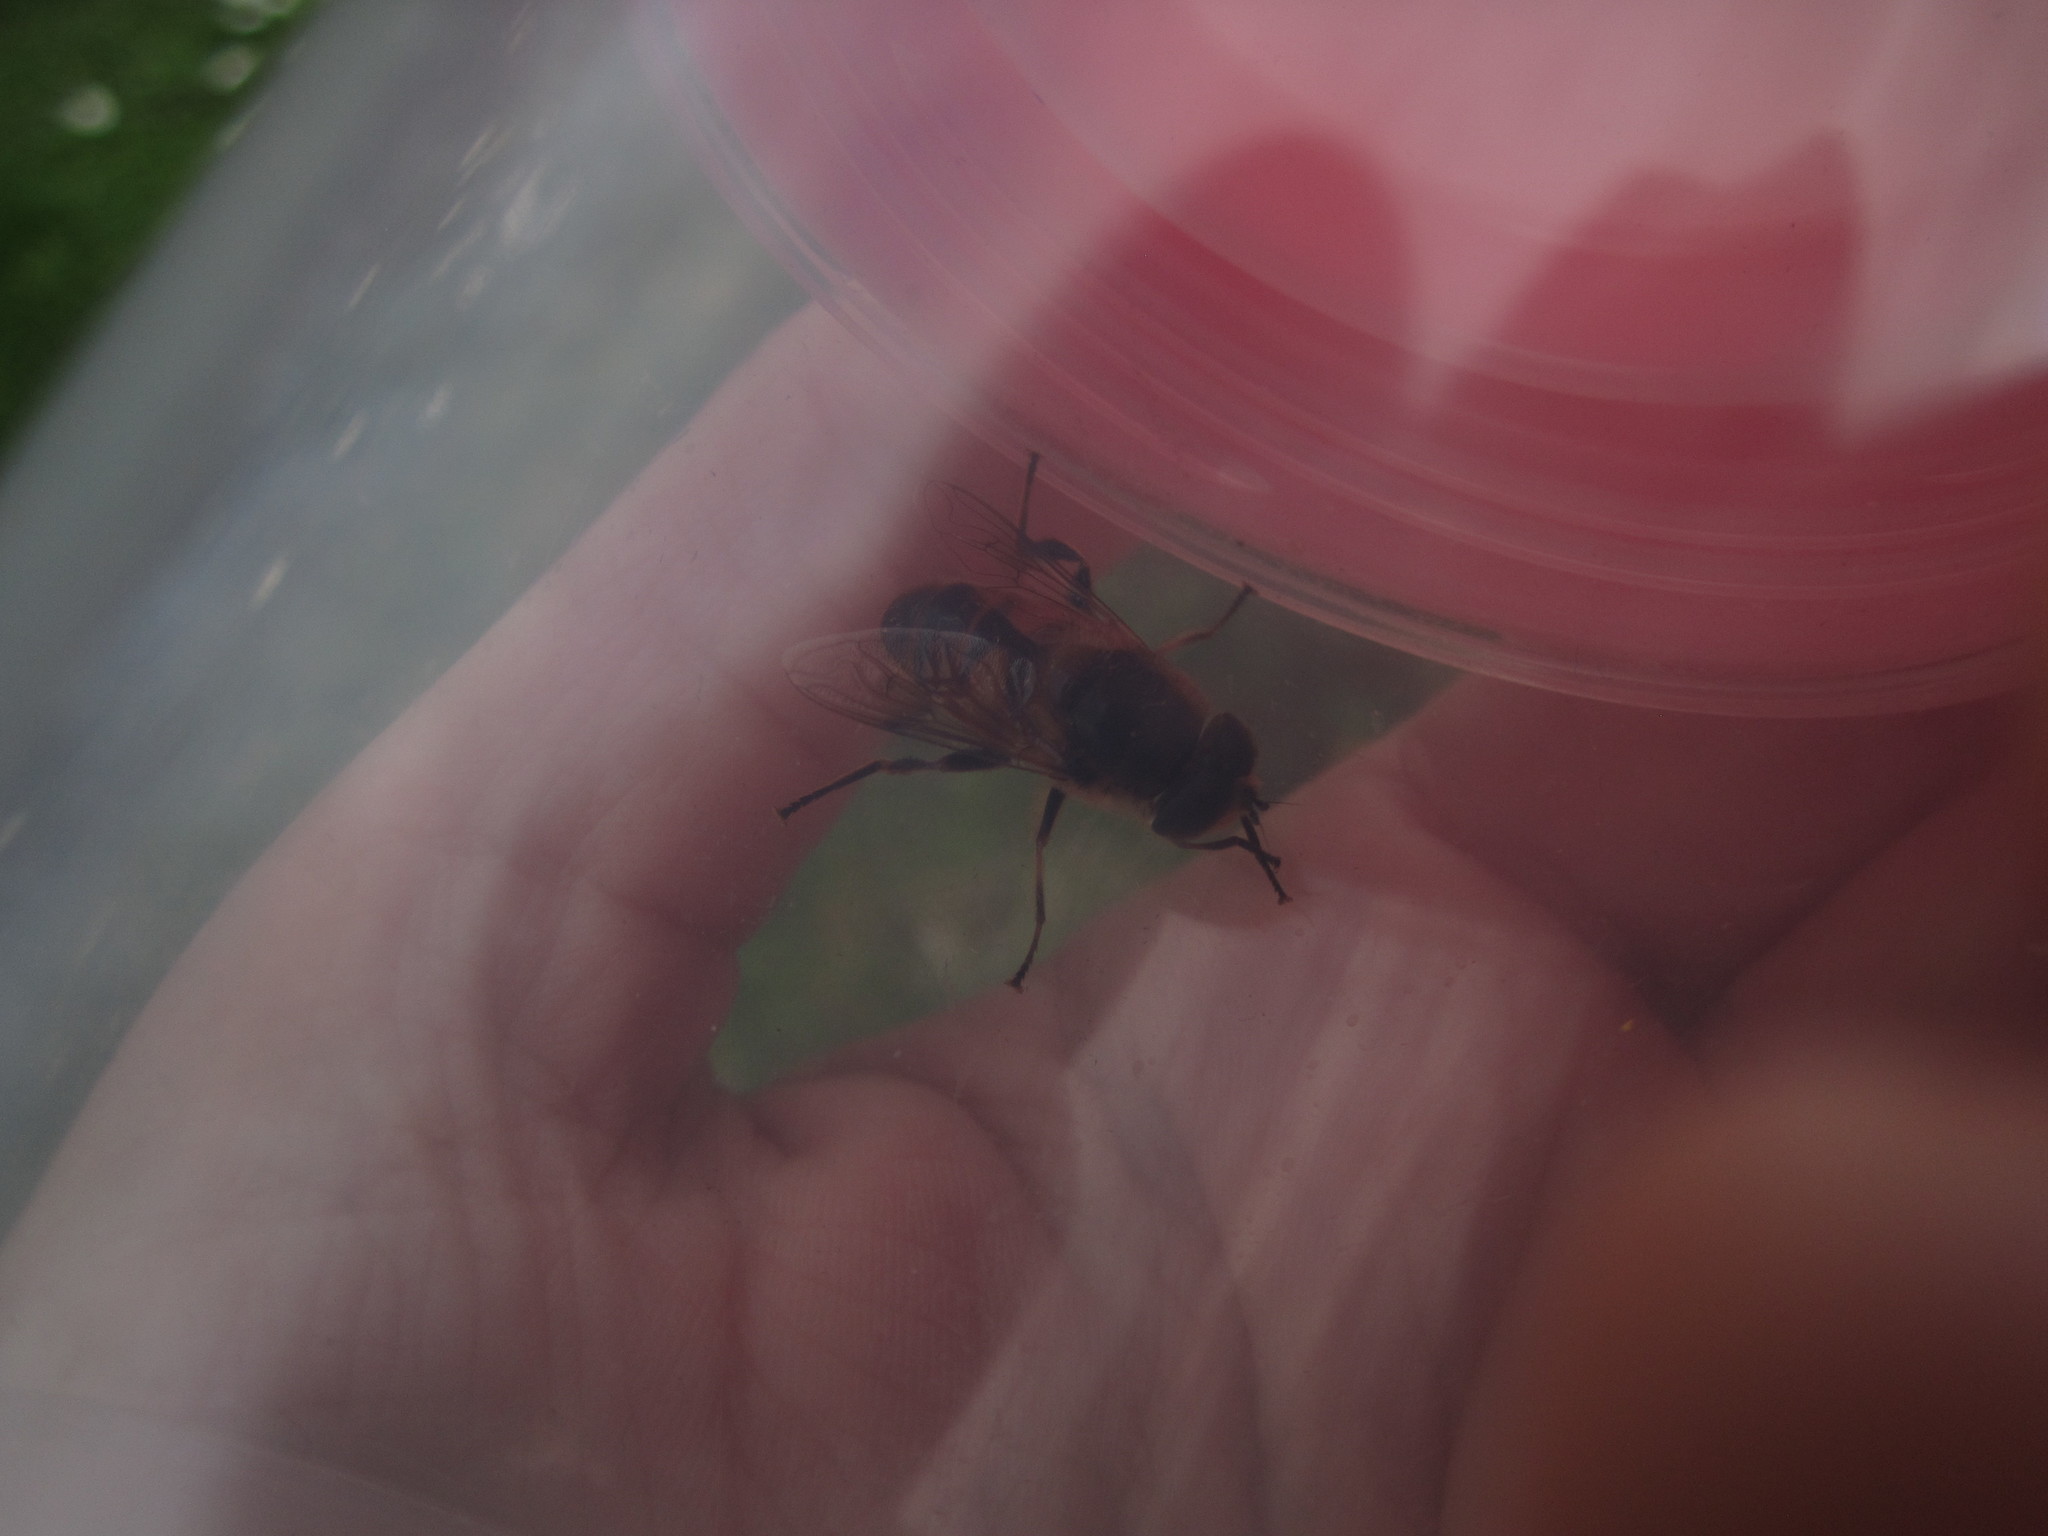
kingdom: Animalia
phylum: Arthropoda
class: Insecta
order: Diptera
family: Syrphidae
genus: Eristalis
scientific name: Eristalis tenax
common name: Drone fly
